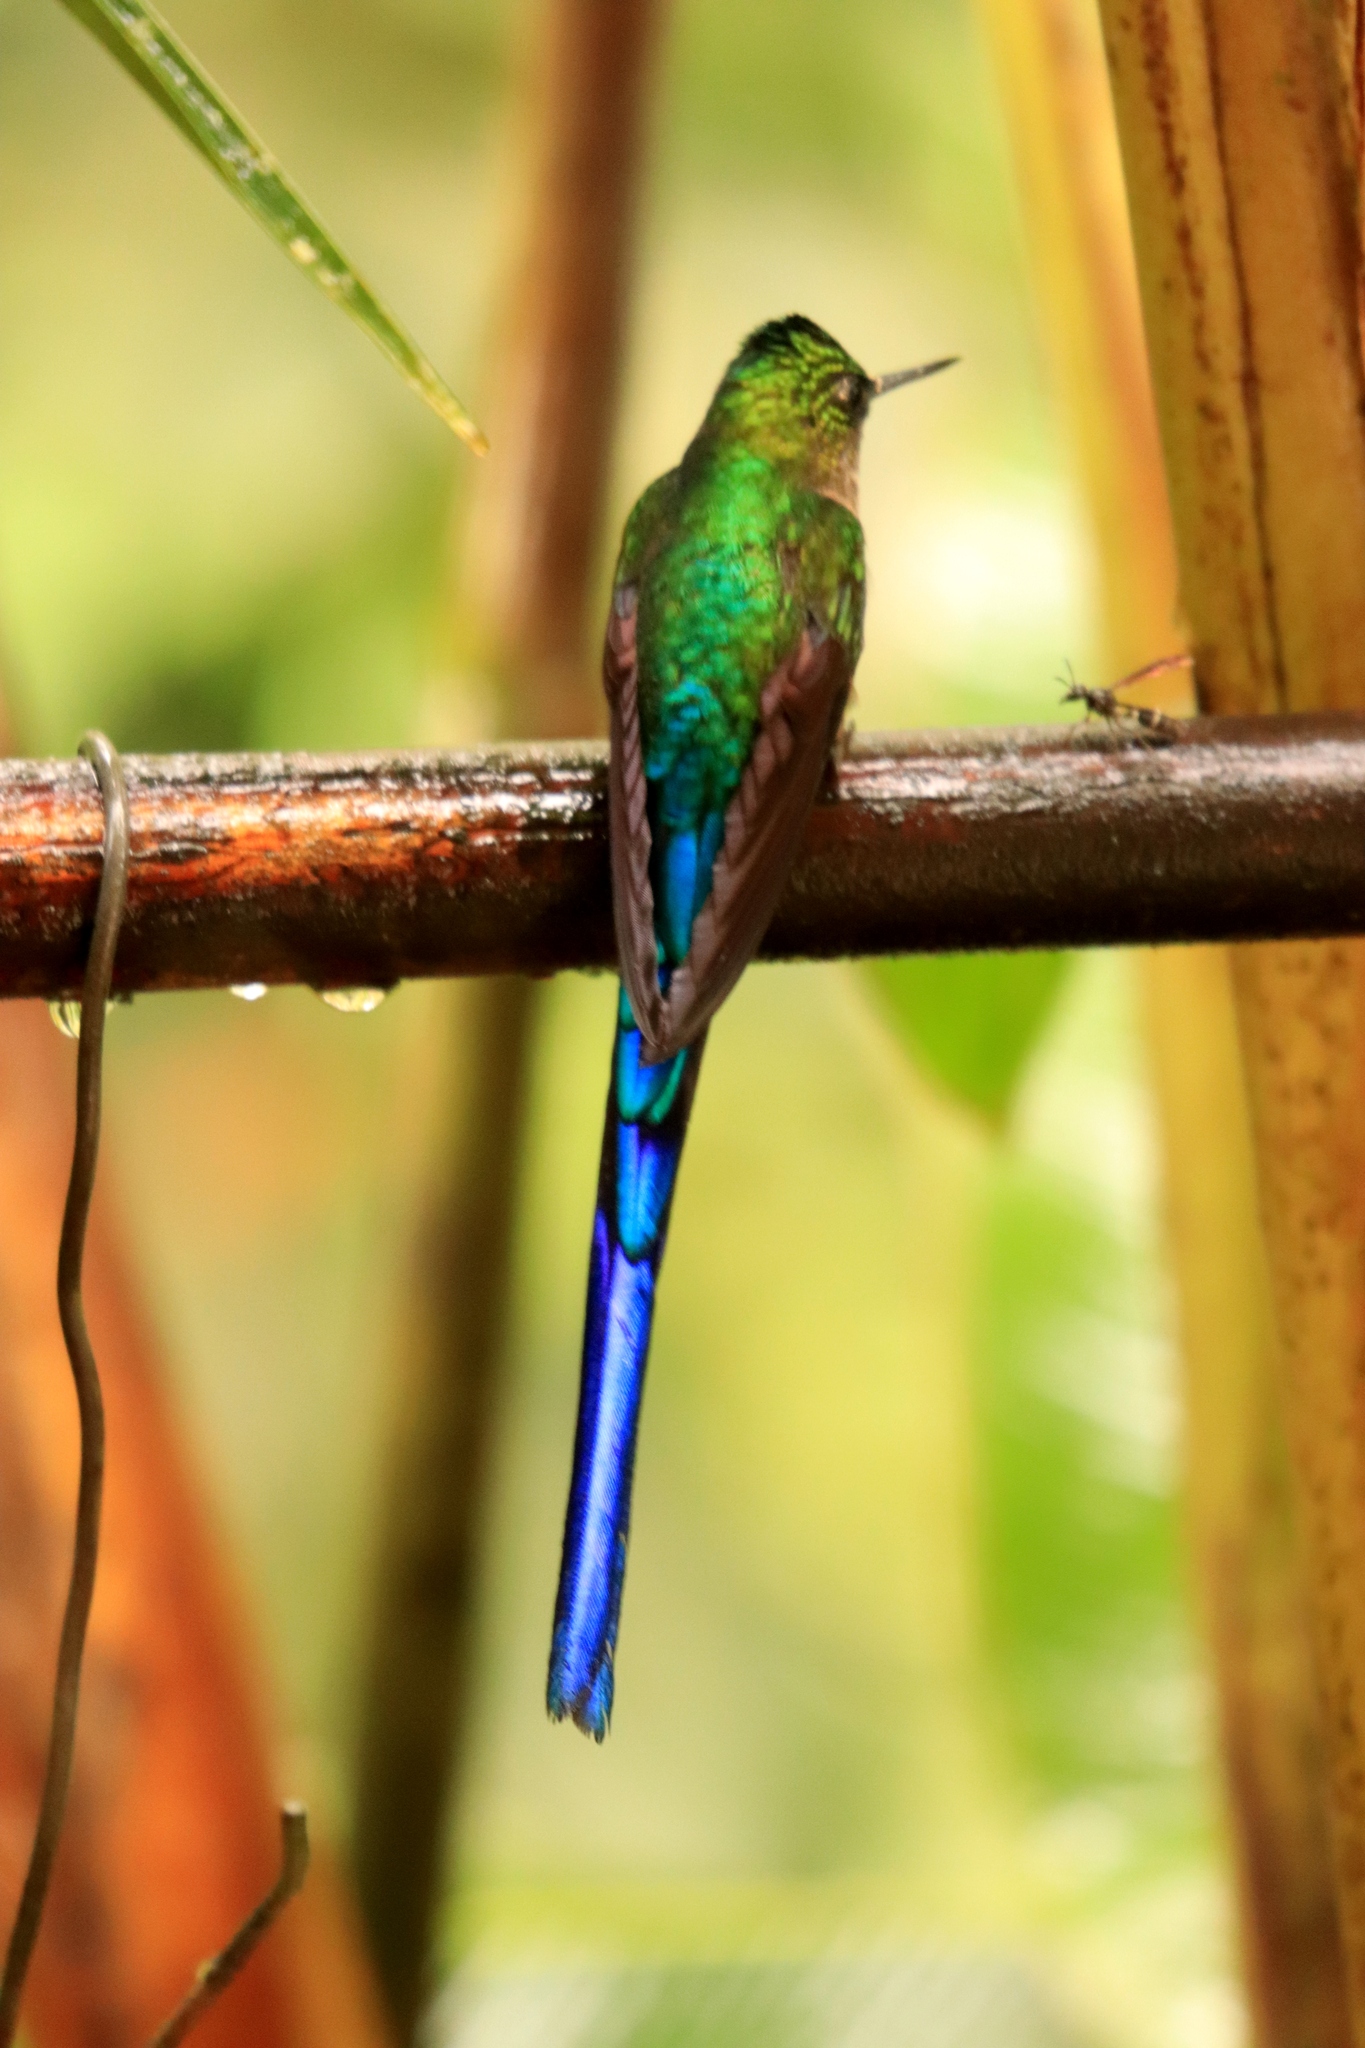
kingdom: Animalia
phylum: Chordata
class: Aves
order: Apodiformes
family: Trochilidae
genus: Aglaiocercus
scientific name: Aglaiocercus kingii
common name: Long-tailed sylph
